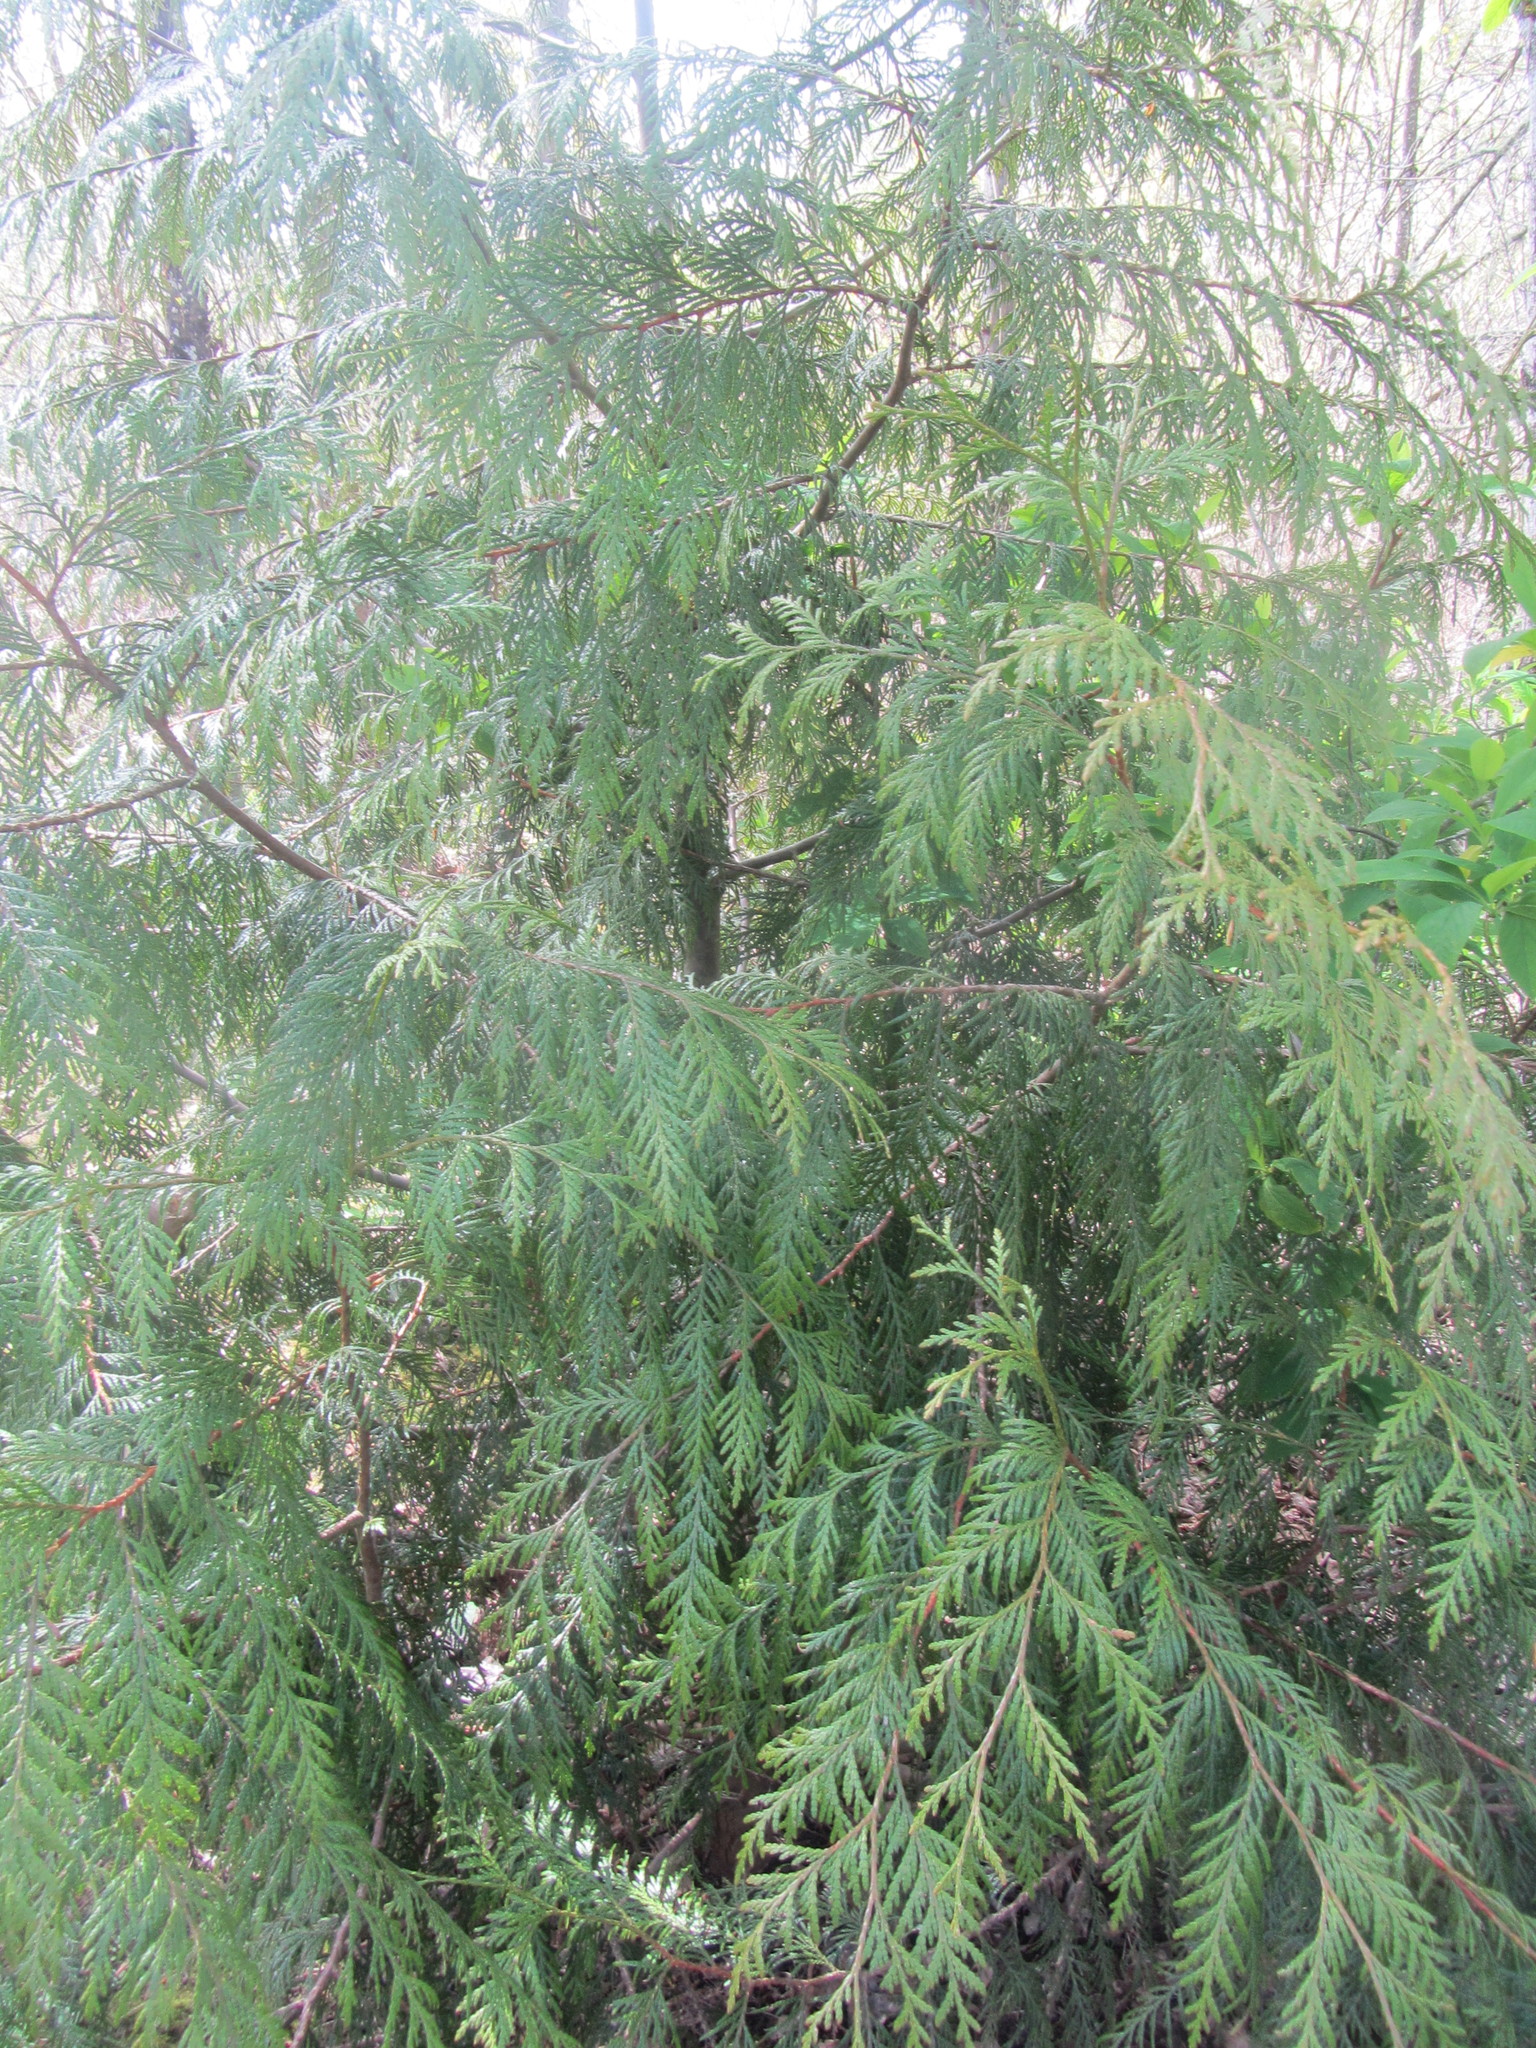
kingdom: Plantae
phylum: Tracheophyta
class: Pinopsida
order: Pinales
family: Cupressaceae
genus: Thuja
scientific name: Thuja plicata
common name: Western red-cedar
